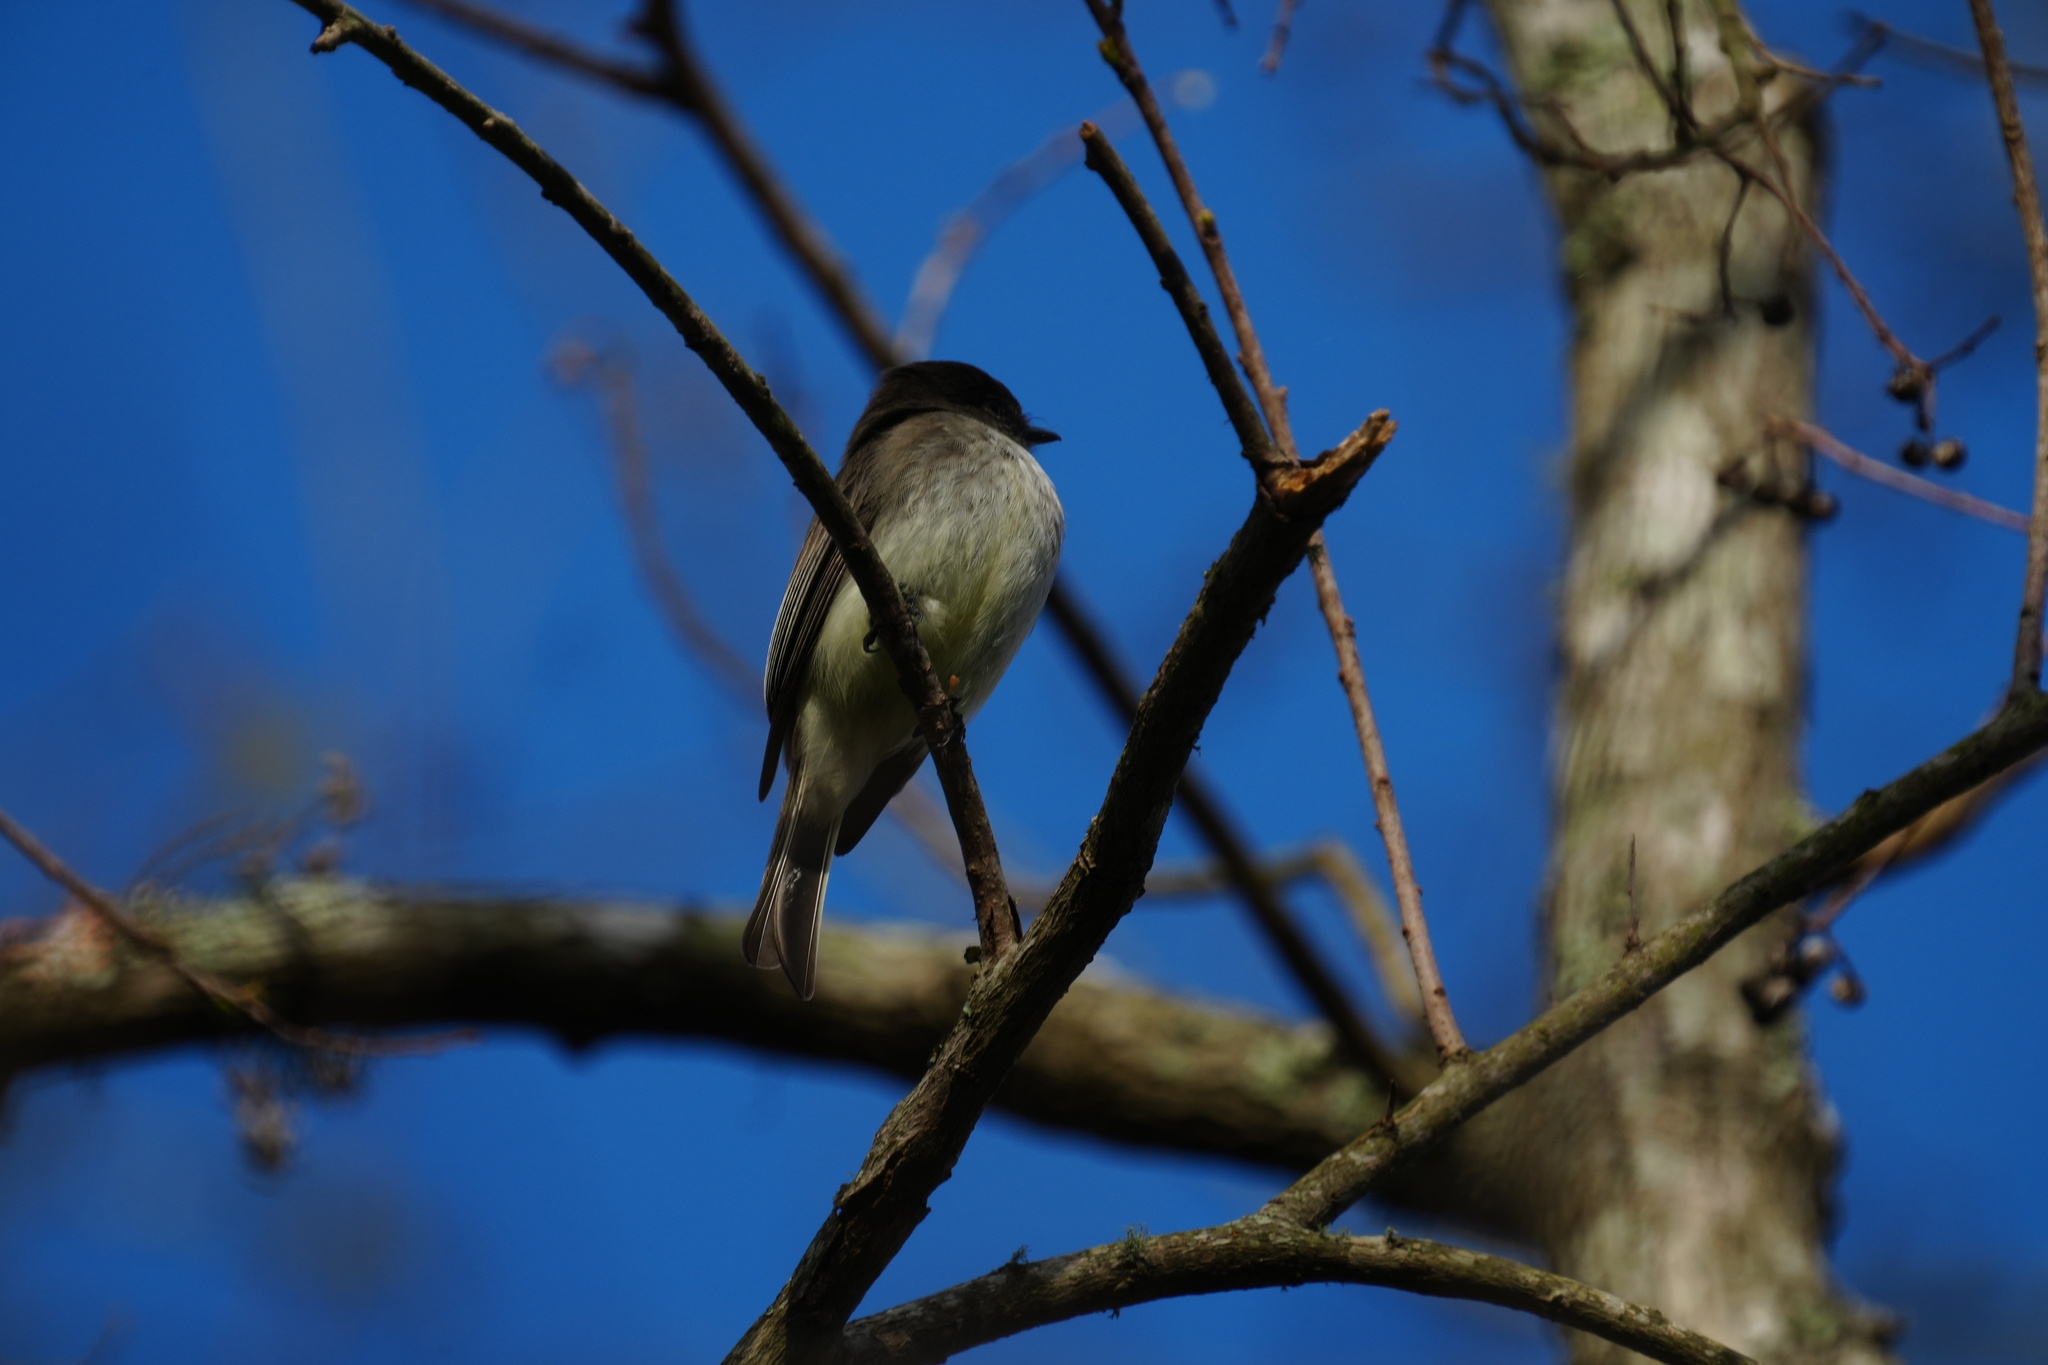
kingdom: Animalia
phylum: Chordata
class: Aves
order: Passeriformes
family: Tyrannidae
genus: Sayornis
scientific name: Sayornis phoebe
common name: Eastern phoebe
